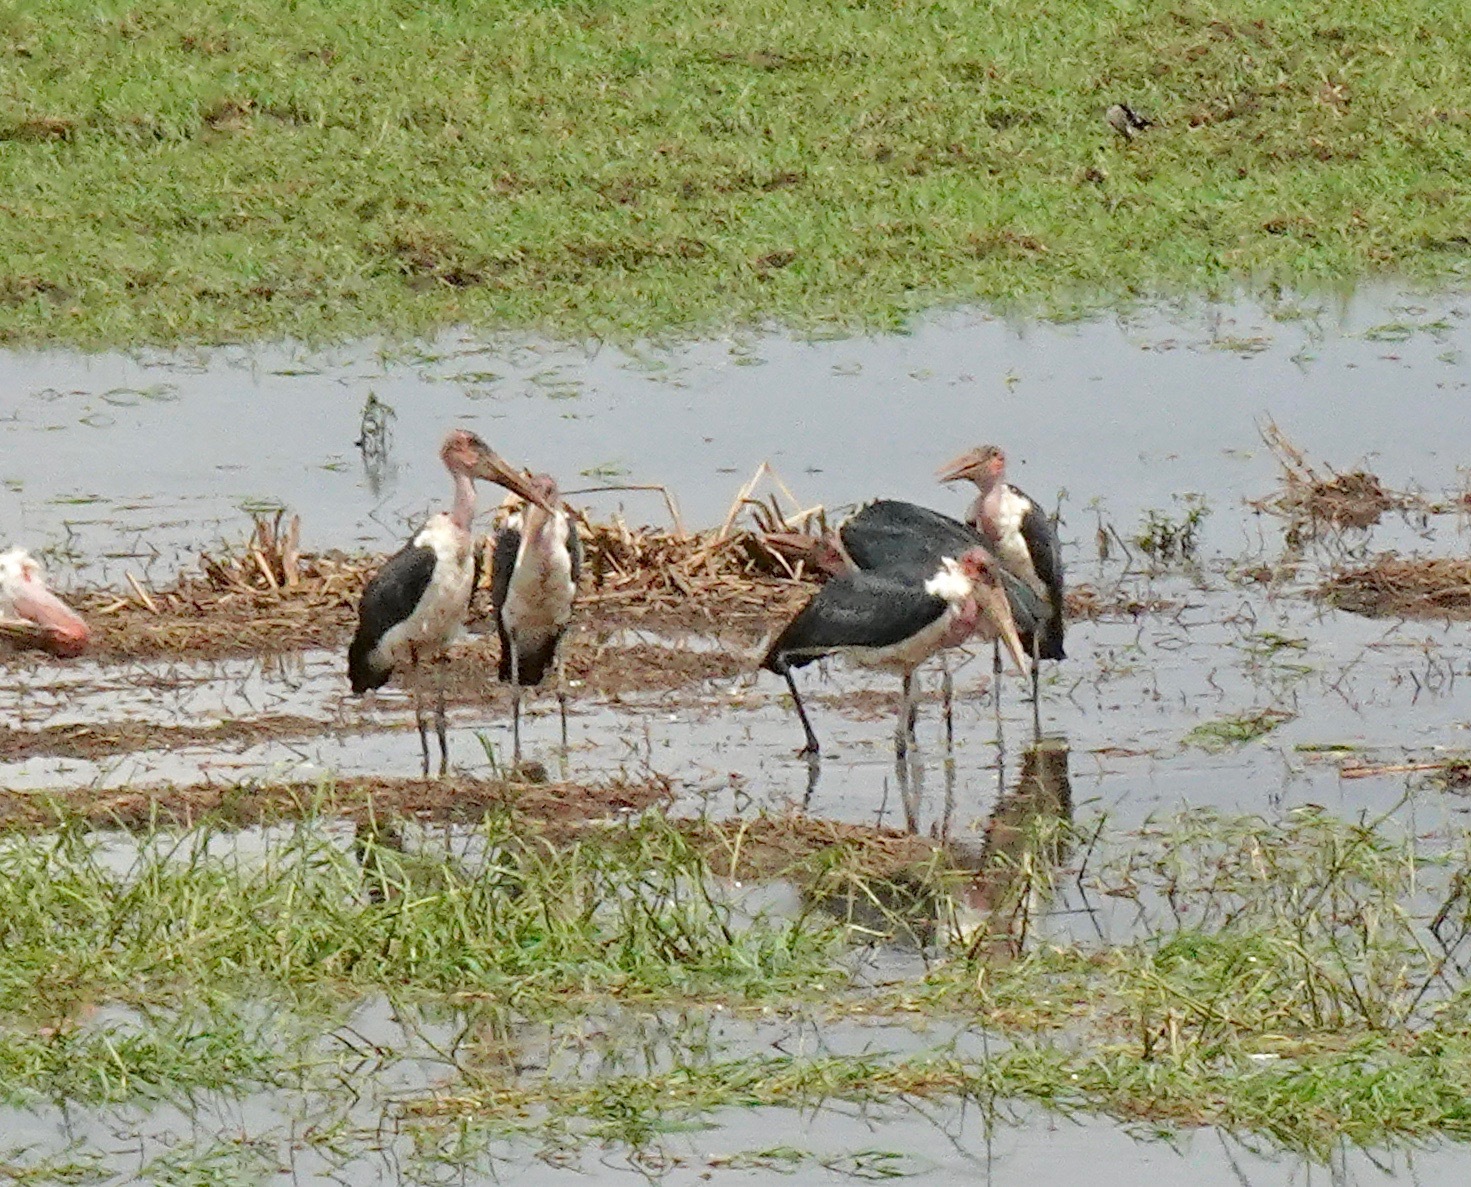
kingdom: Animalia
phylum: Chordata
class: Aves
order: Ciconiiformes
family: Ciconiidae
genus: Leptoptilos
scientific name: Leptoptilos crumenifer
